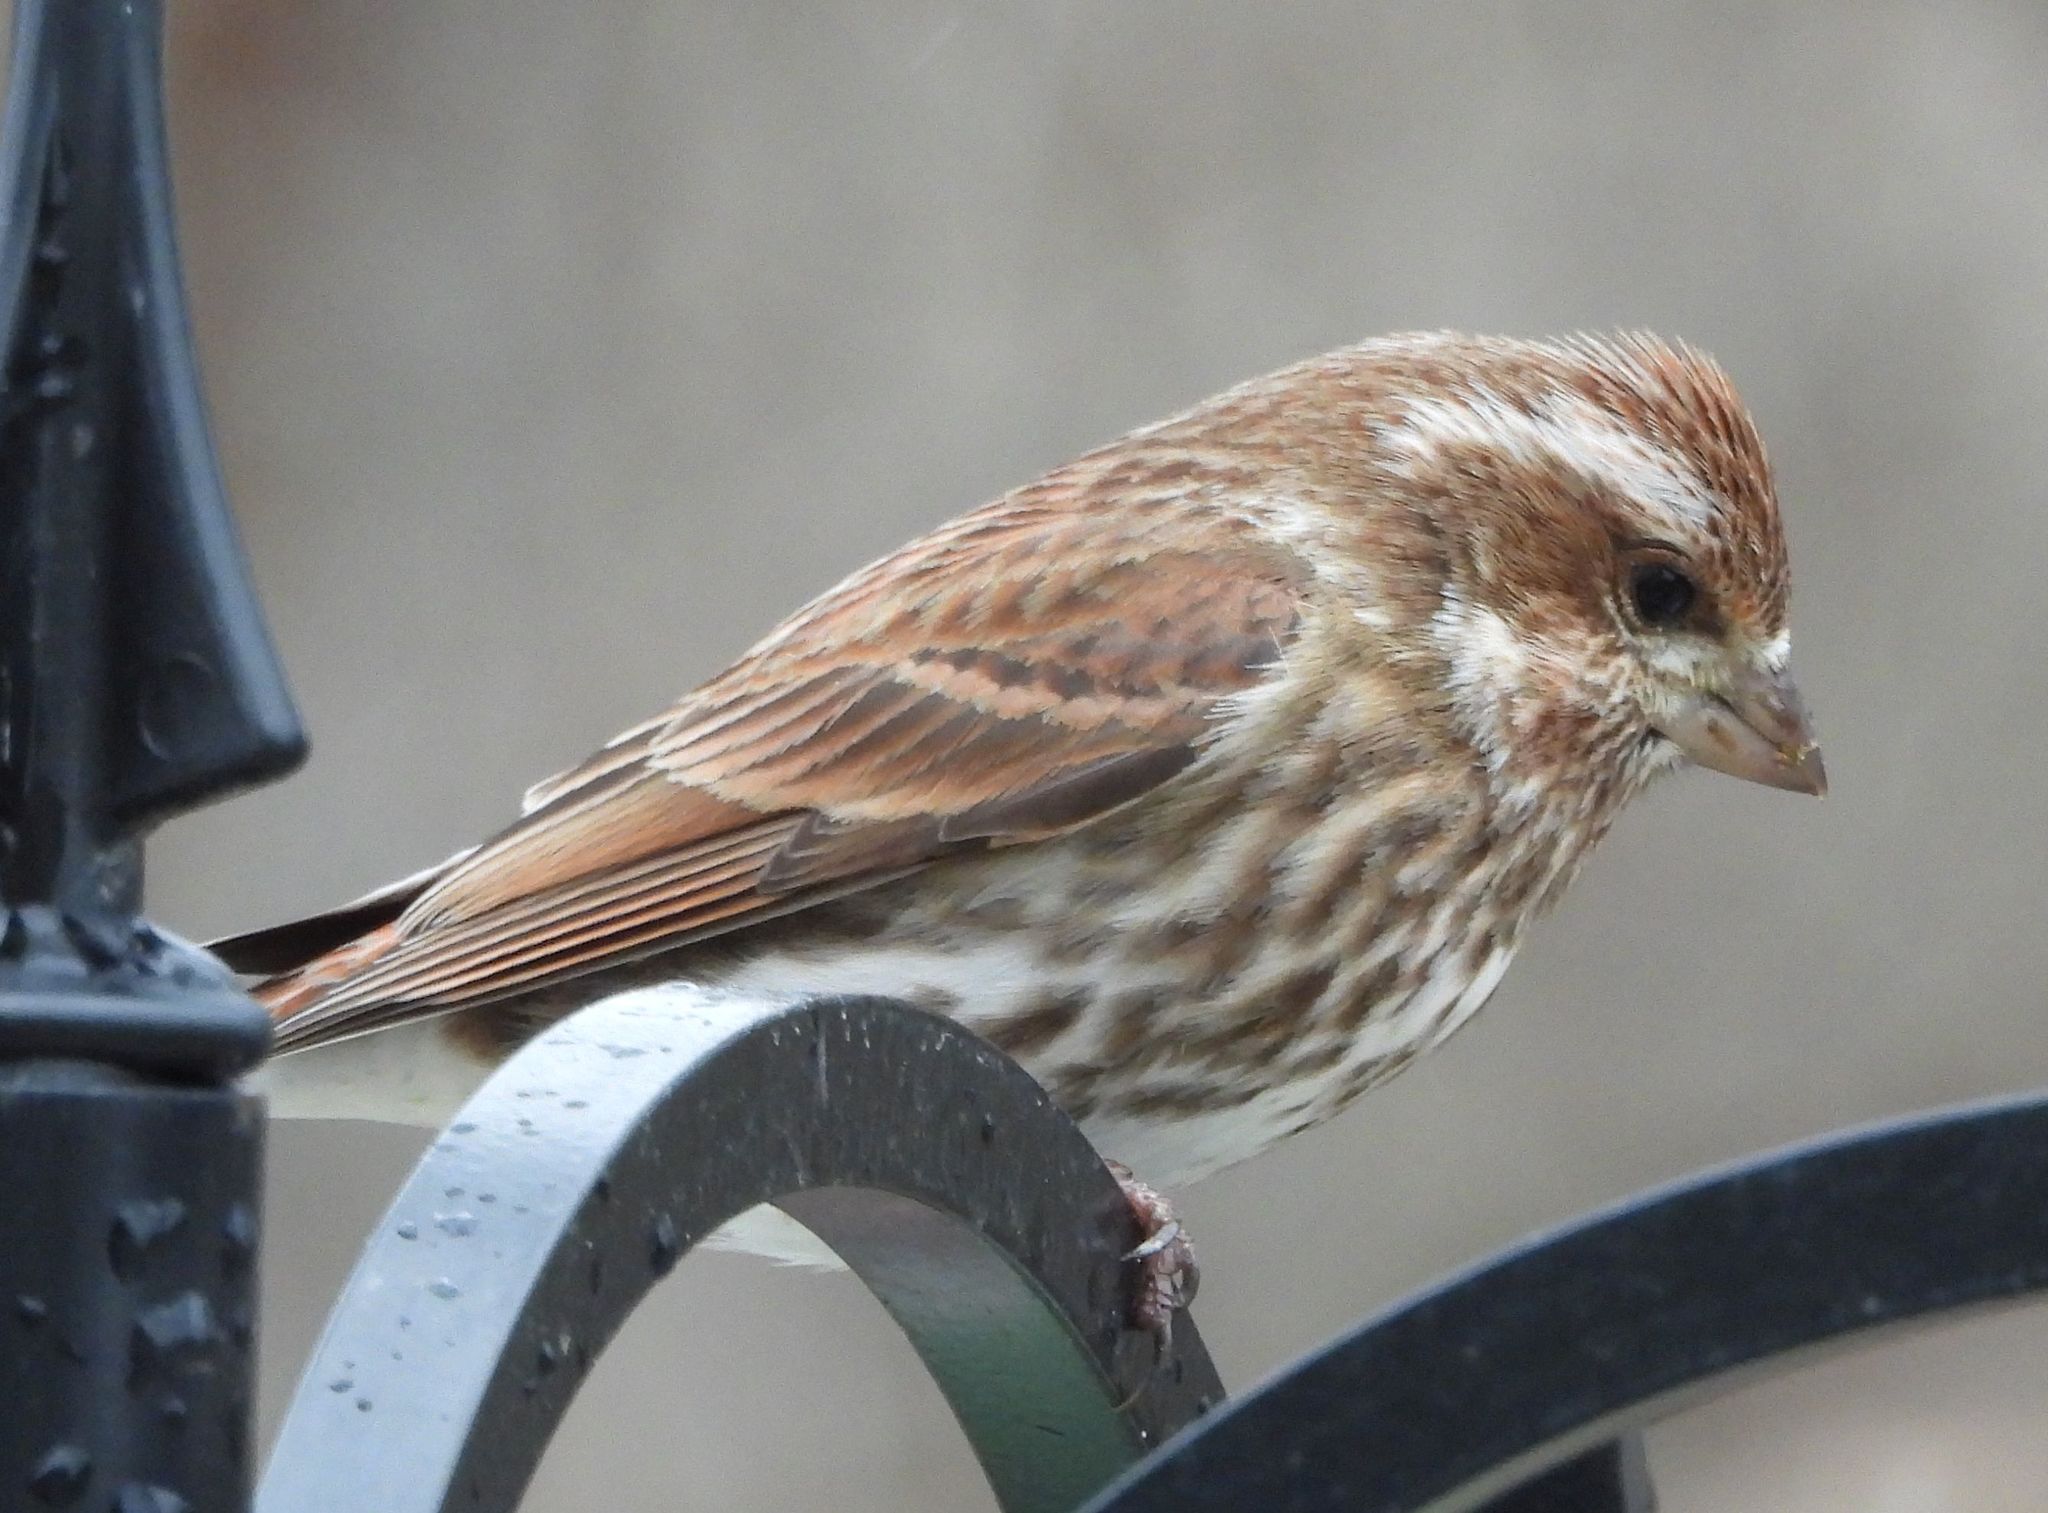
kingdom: Animalia
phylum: Chordata
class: Aves
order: Passeriformes
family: Fringillidae
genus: Haemorhous
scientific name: Haemorhous purpureus
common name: Purple finch
